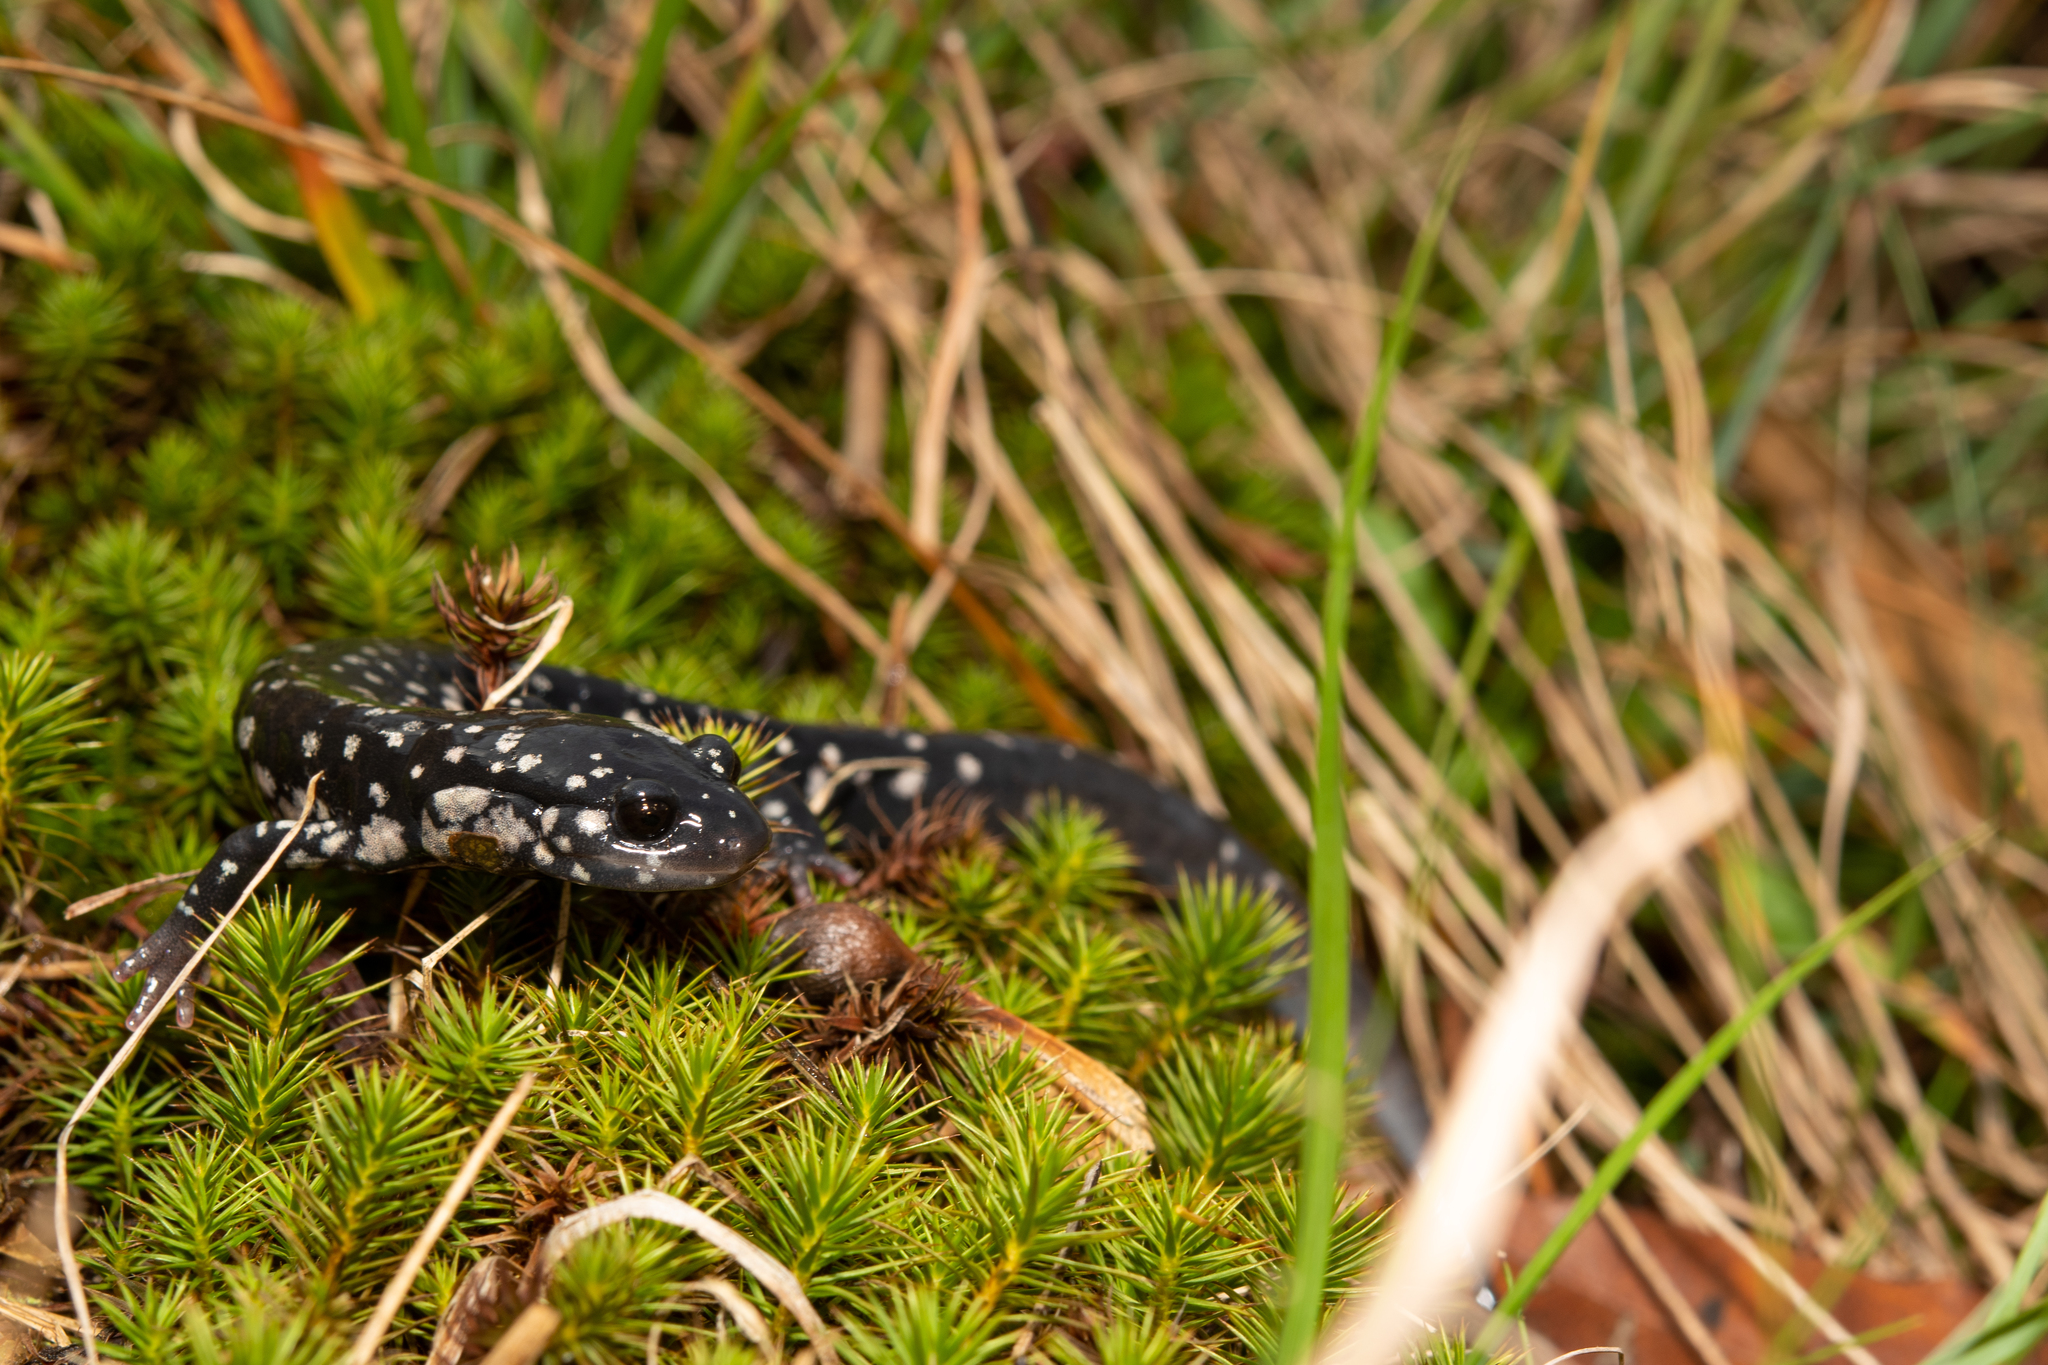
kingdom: Animalia
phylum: Chordata
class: Amphibia
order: Caudata
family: Plethodontidae
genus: Plethodon
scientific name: Plethodon glutinosus
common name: Northern slimy salamander
